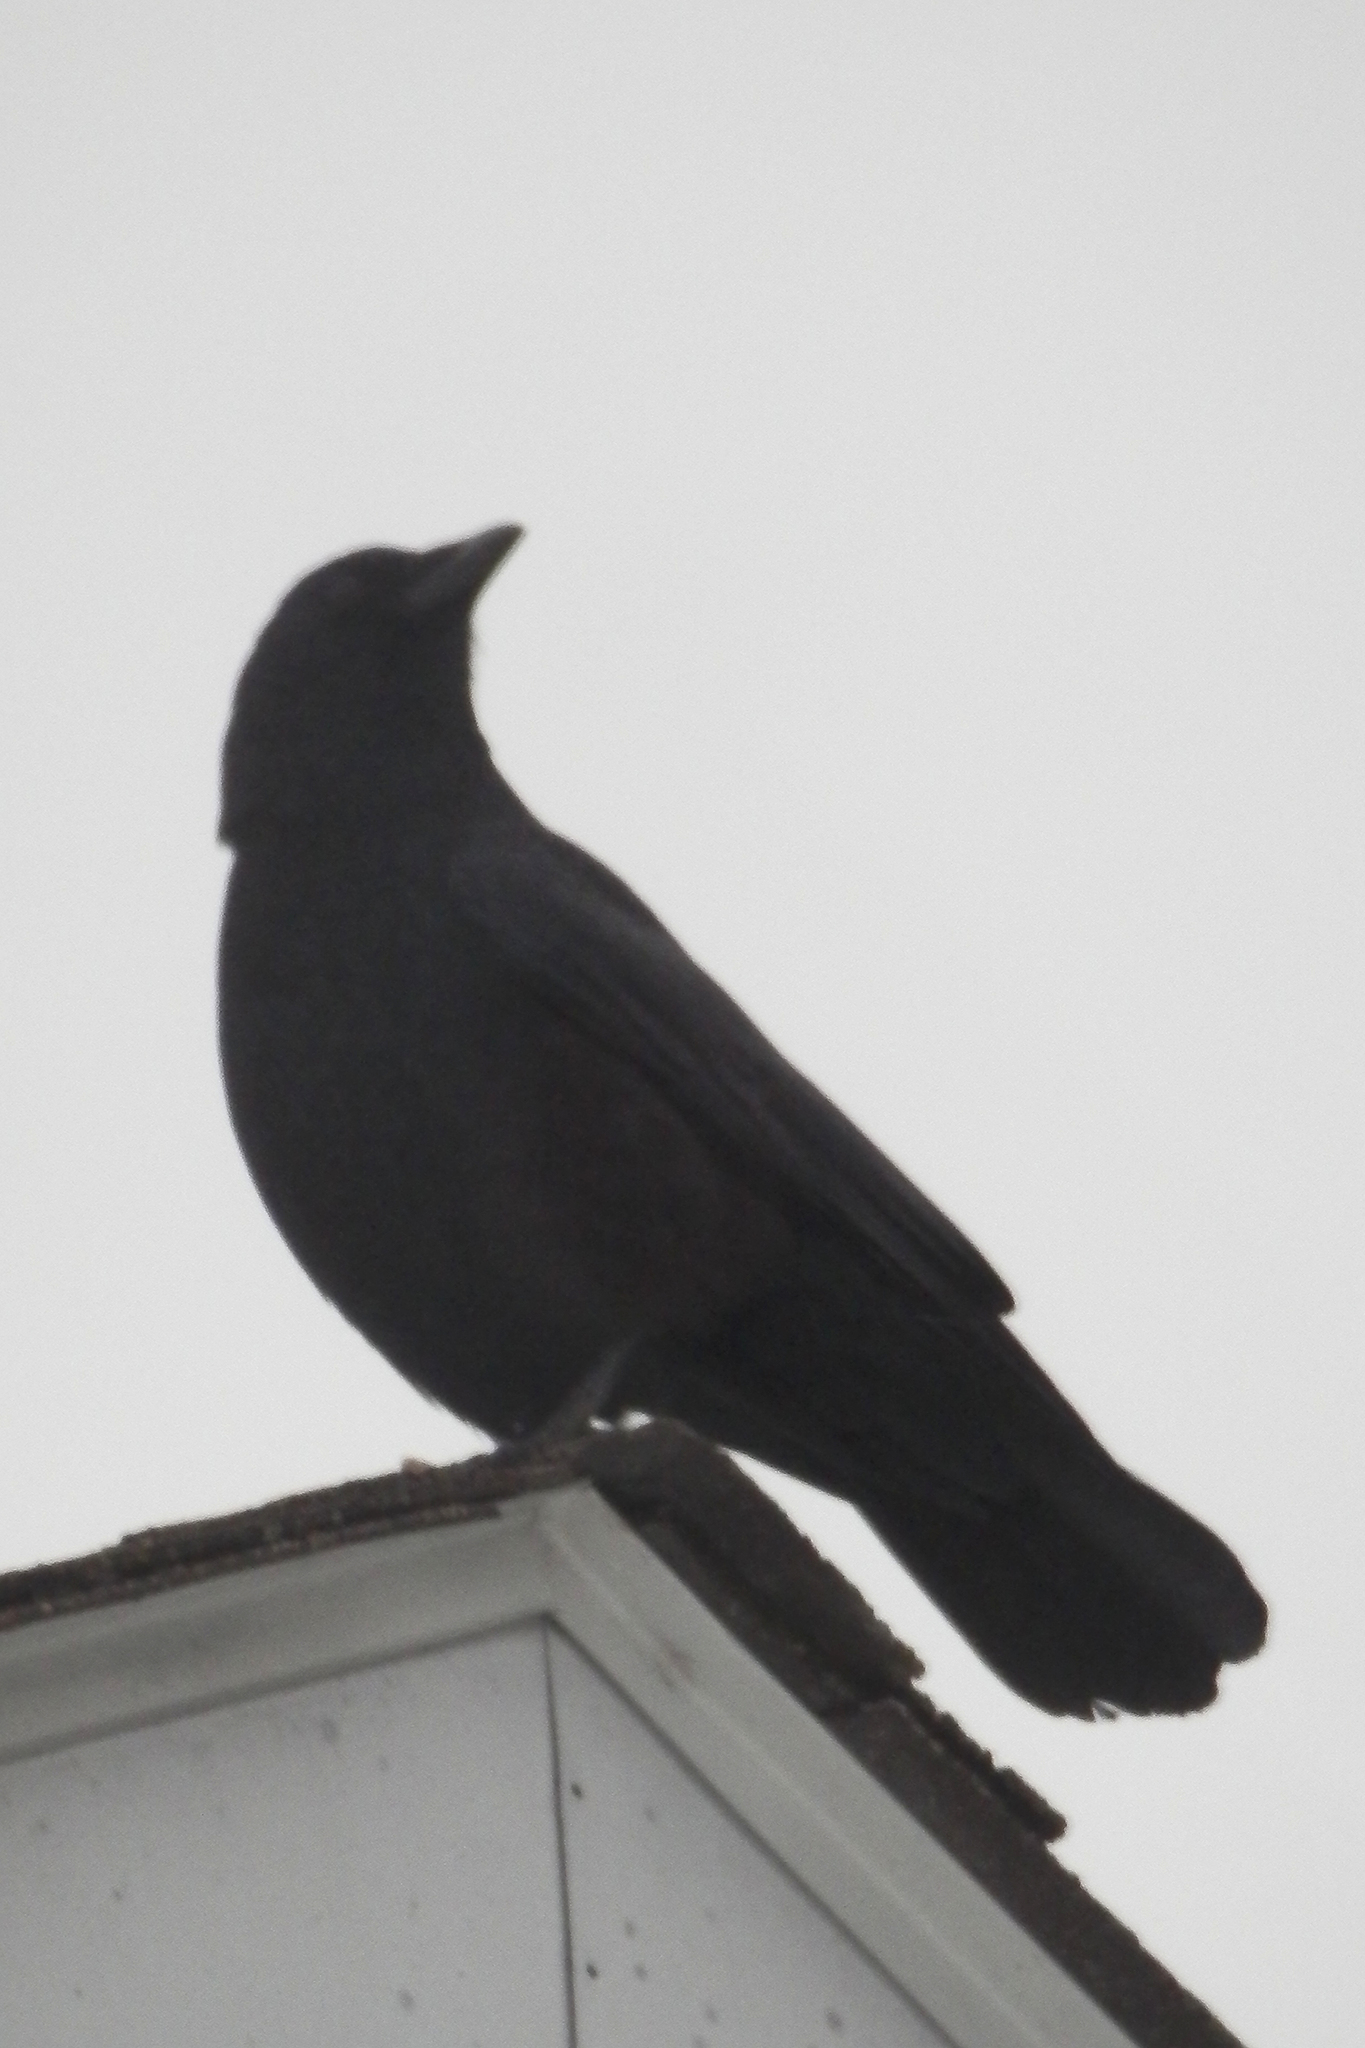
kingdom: Animalia
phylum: Chordata
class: Aves
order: Passeriformes
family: Corvidae
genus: Corvus
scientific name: Corvus brachyrhynchos
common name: American crow
